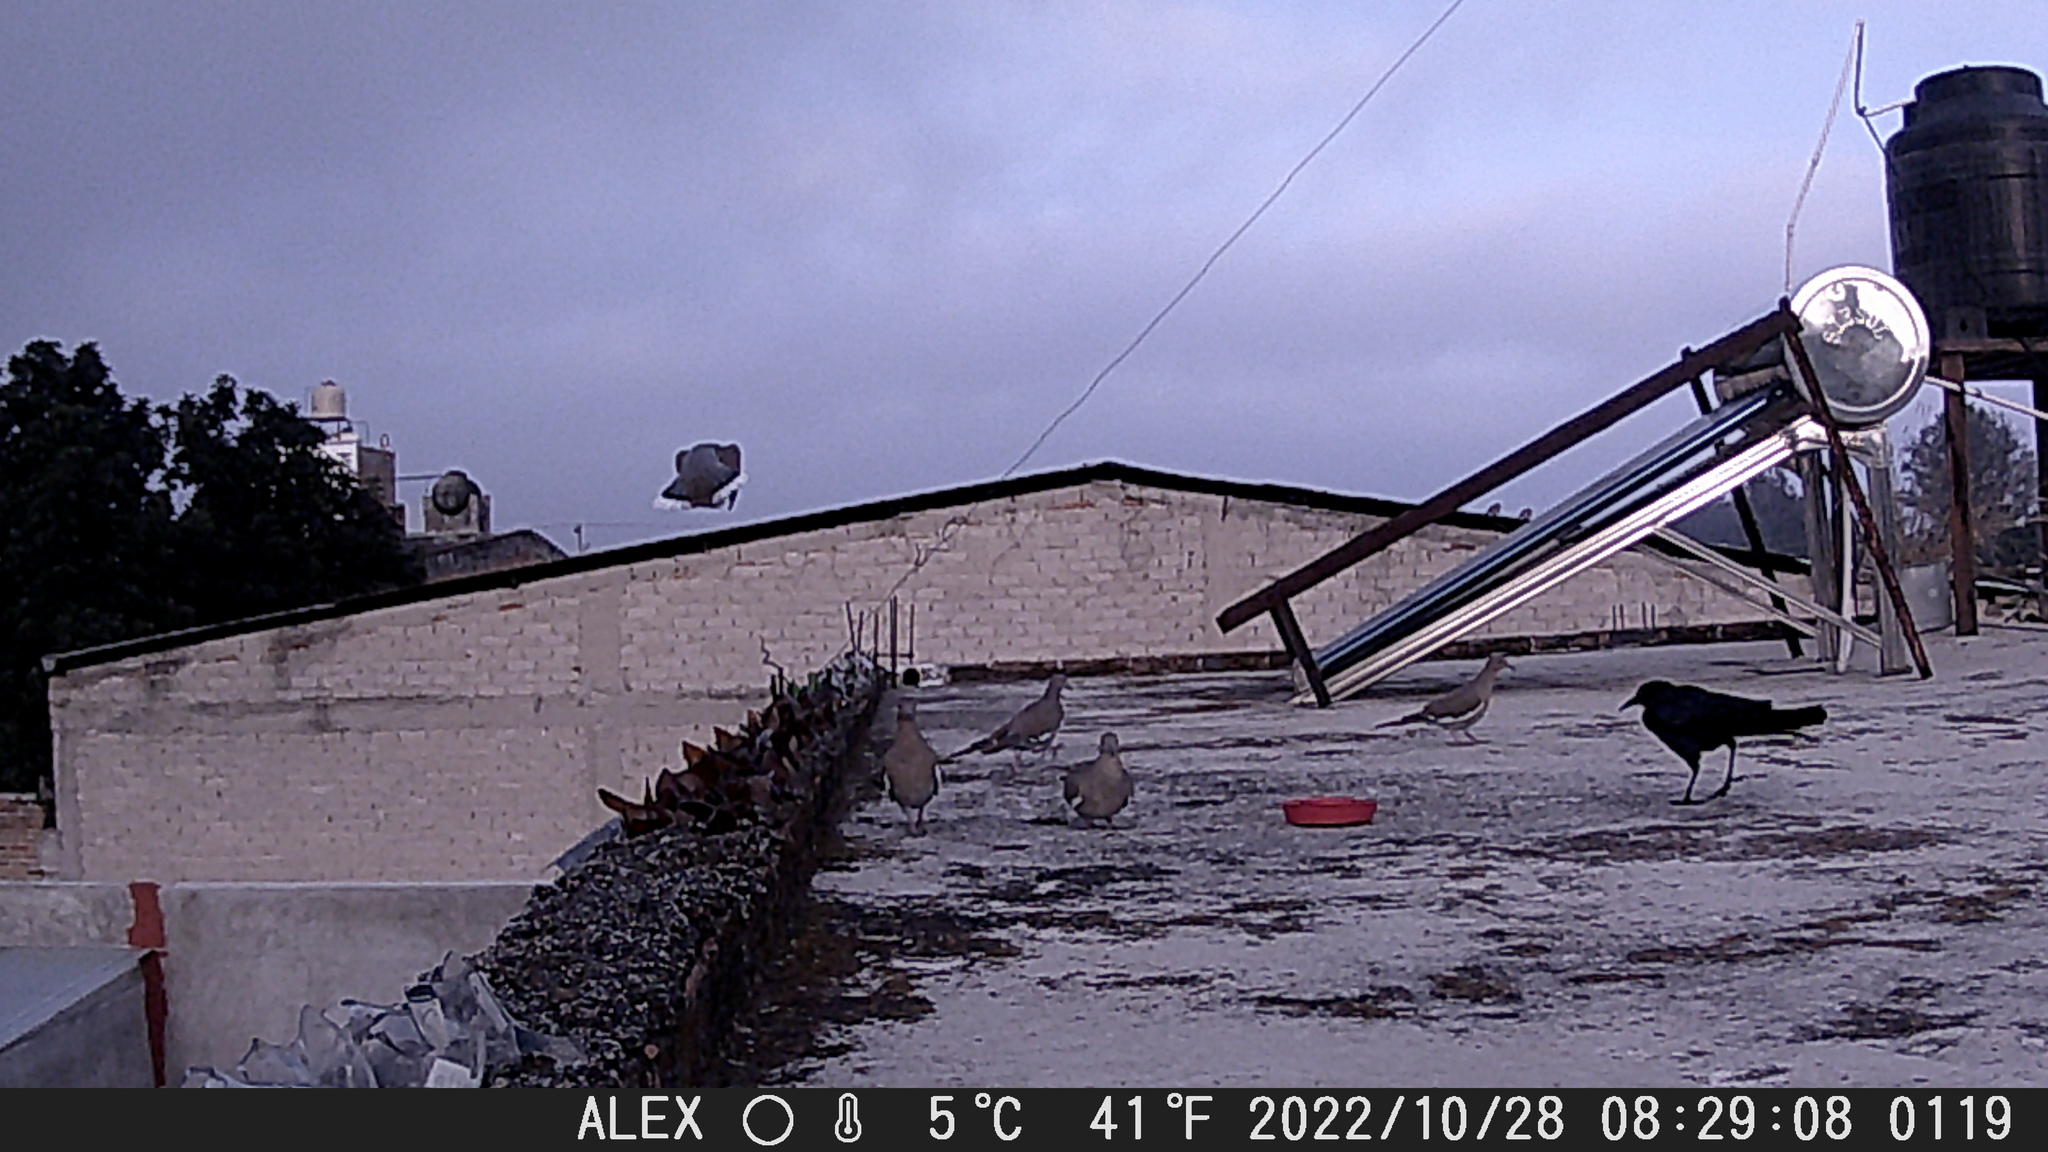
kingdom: Animalia
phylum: Chordata
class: Aves
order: Columbiformes
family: Columbidae
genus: Zenaida
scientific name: Zenaida asiatica
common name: White-winged dove
